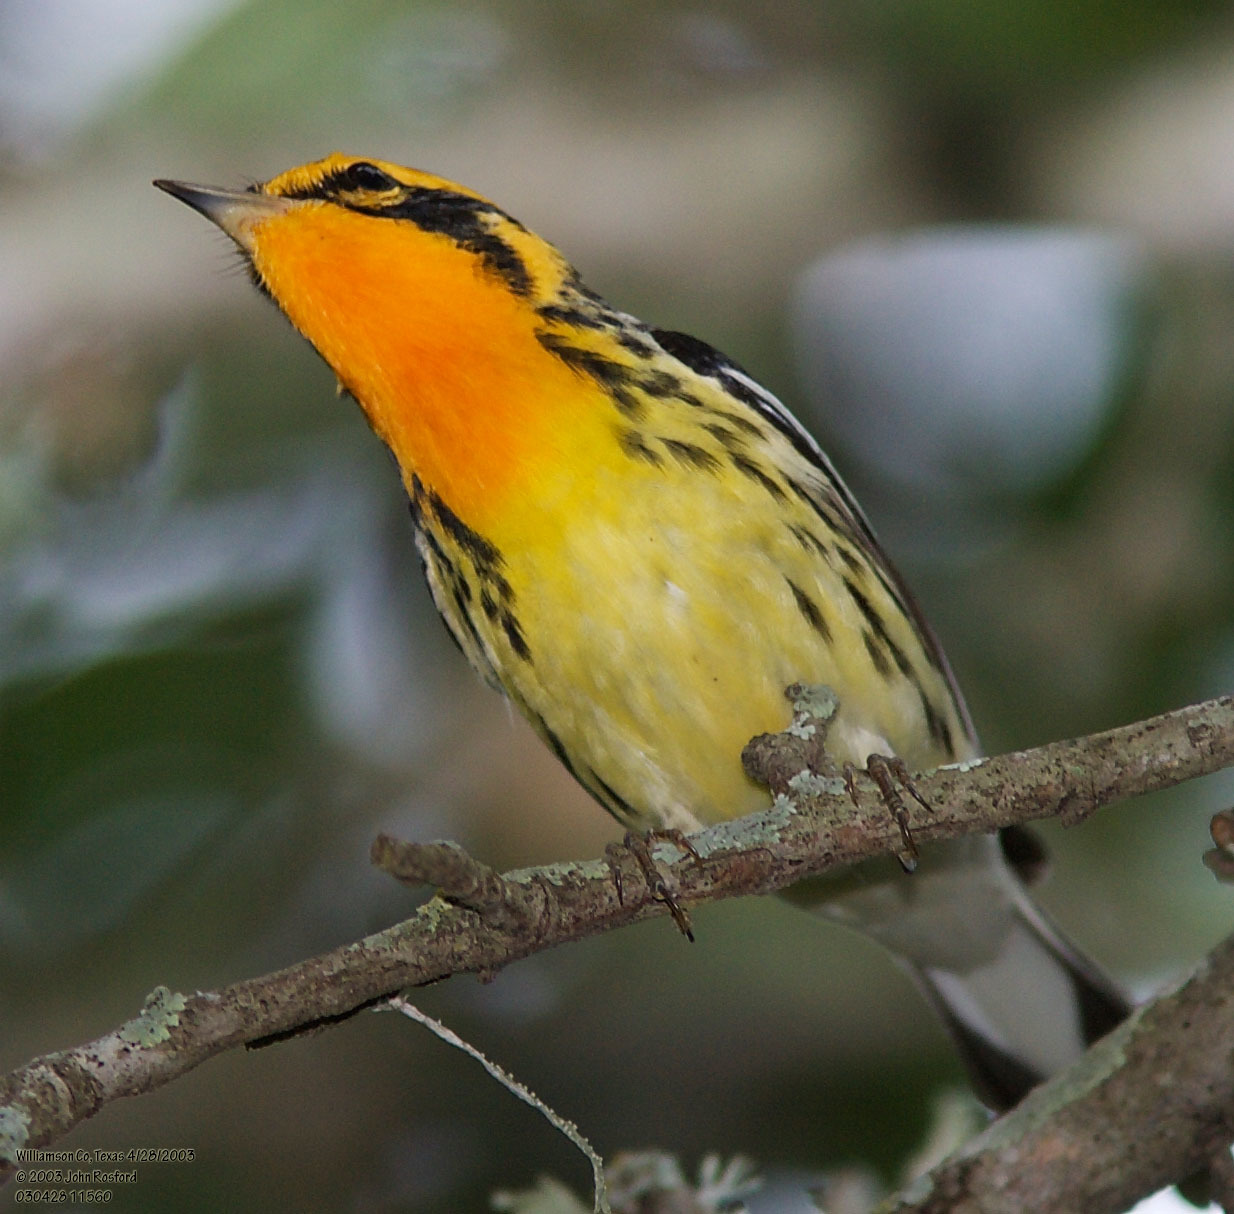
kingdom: Animalia
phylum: Chordata
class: Aves
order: Passeriformes
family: Parulidae
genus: Setophaga
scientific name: Setophaga fusca
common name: Blackburnian warbler
